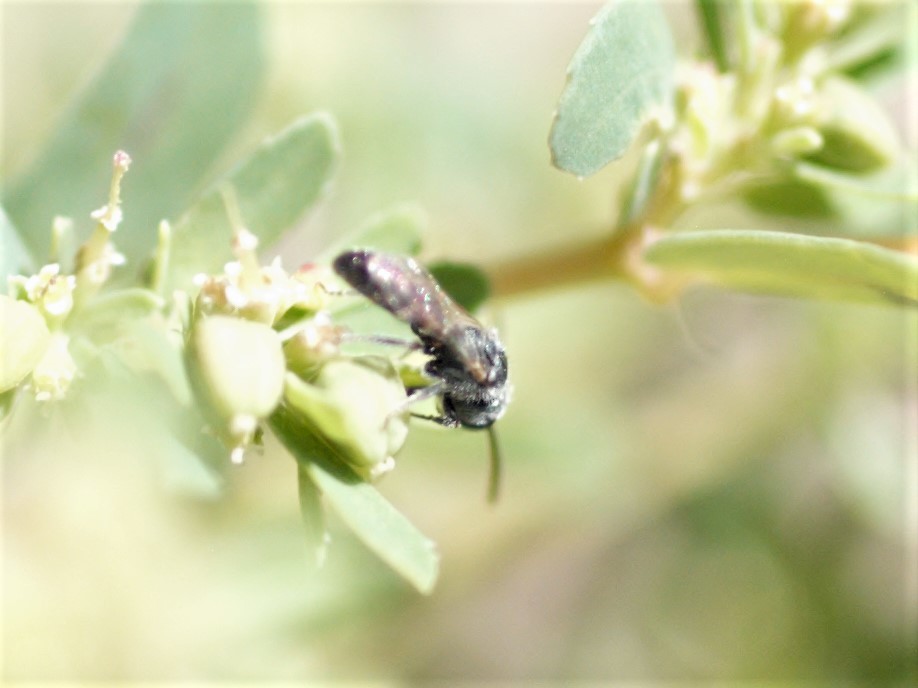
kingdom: Animalia
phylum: Arthropoda
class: Insecta
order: Hymenoptera
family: Halictidae
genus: Dialictus
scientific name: Dialictus
